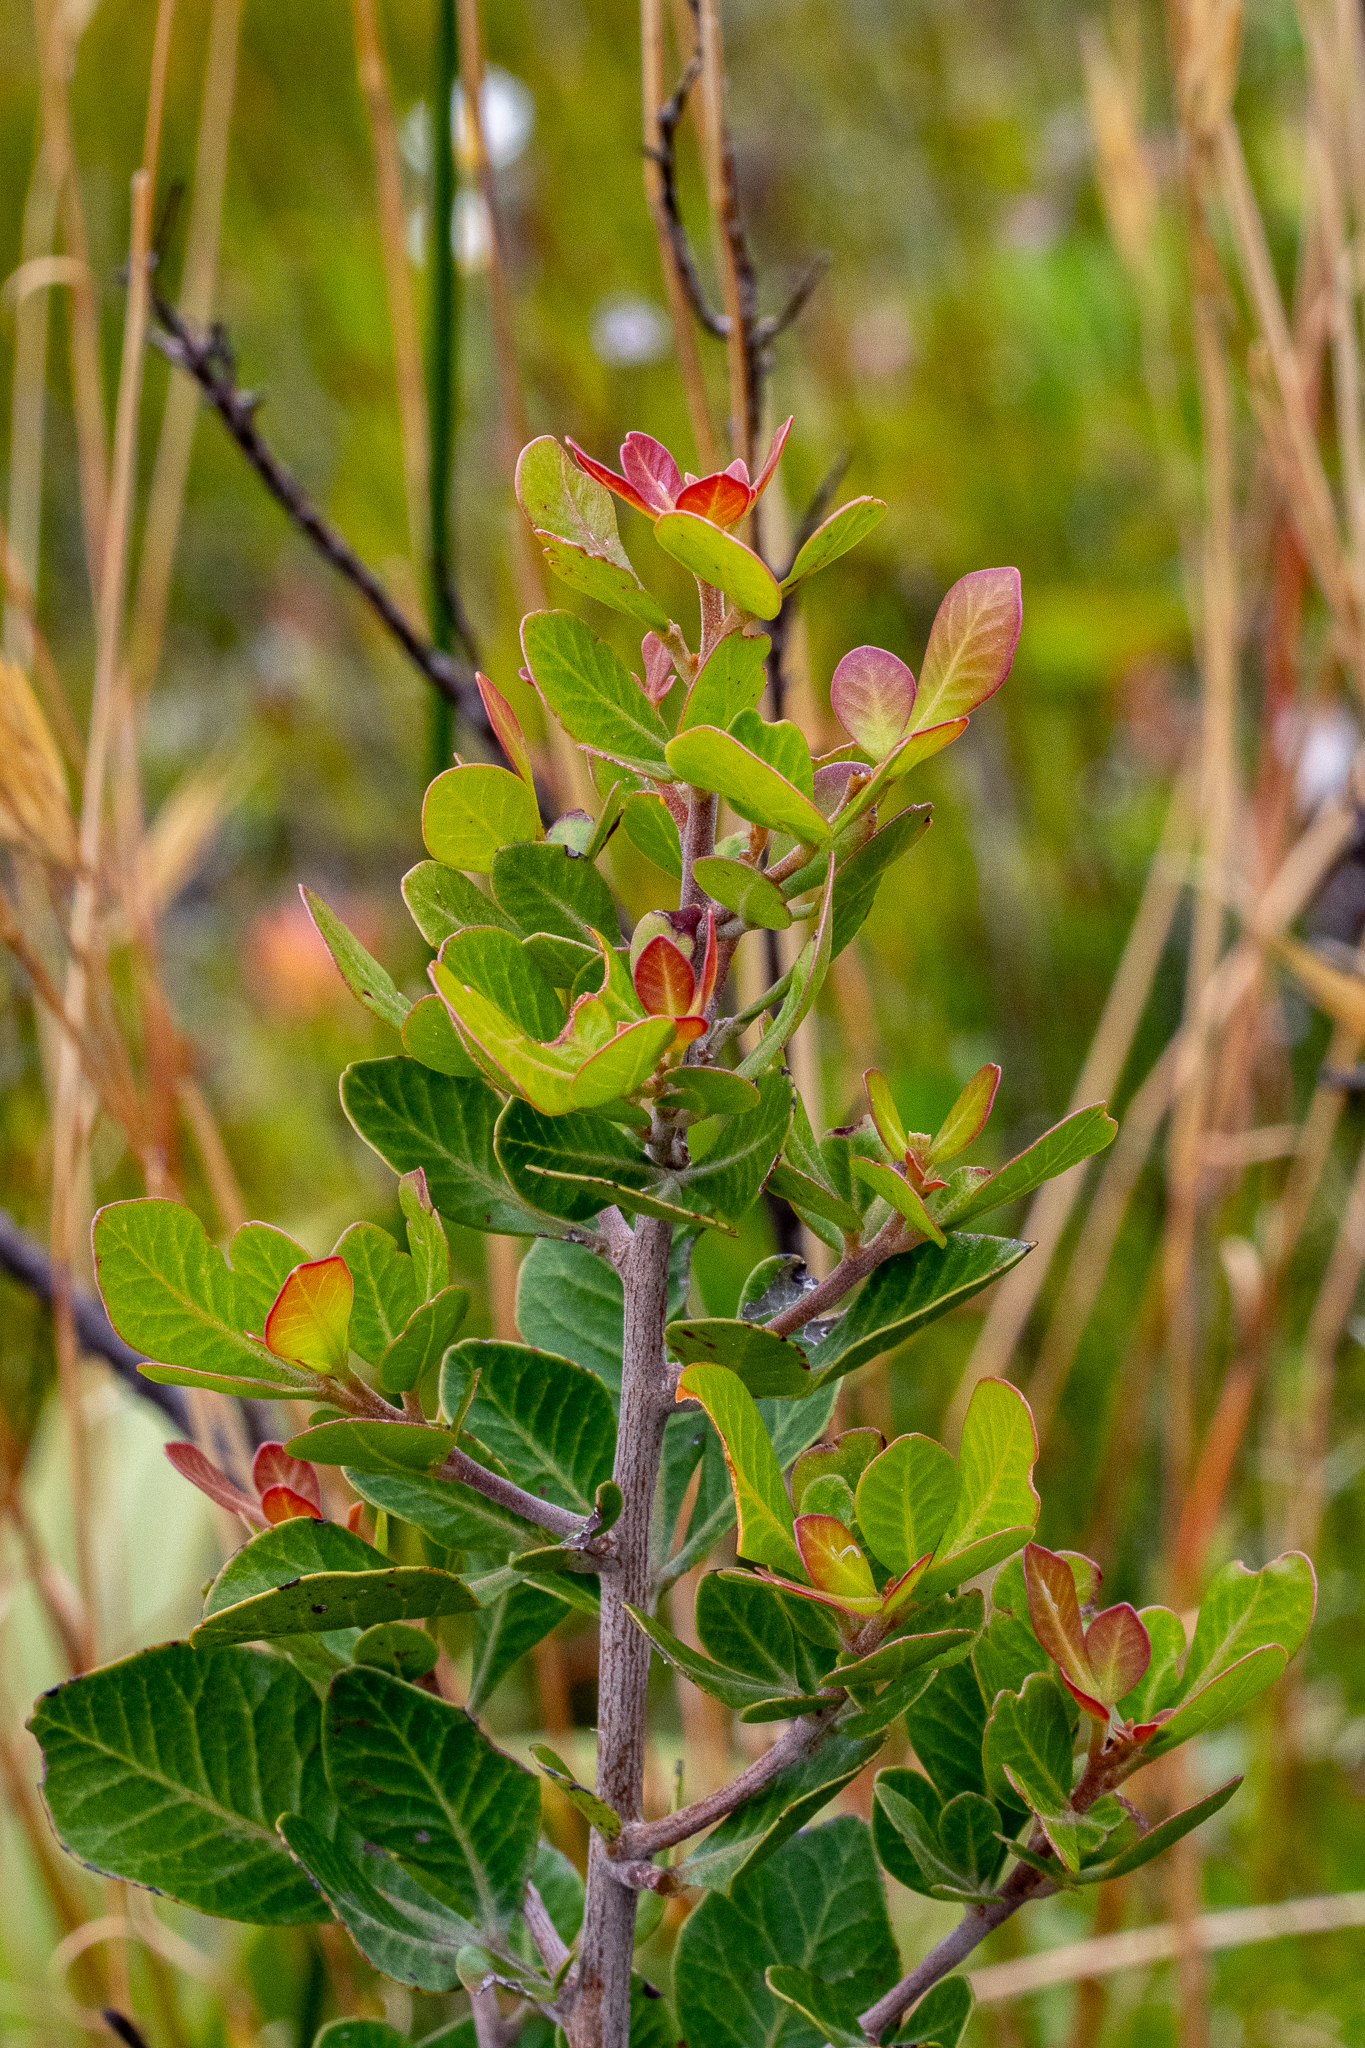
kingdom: Plantae
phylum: Tracheophyta
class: Magnoliopsida
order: Sapindales
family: Anacardiaceae
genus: Searsia
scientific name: Searsia lucida
